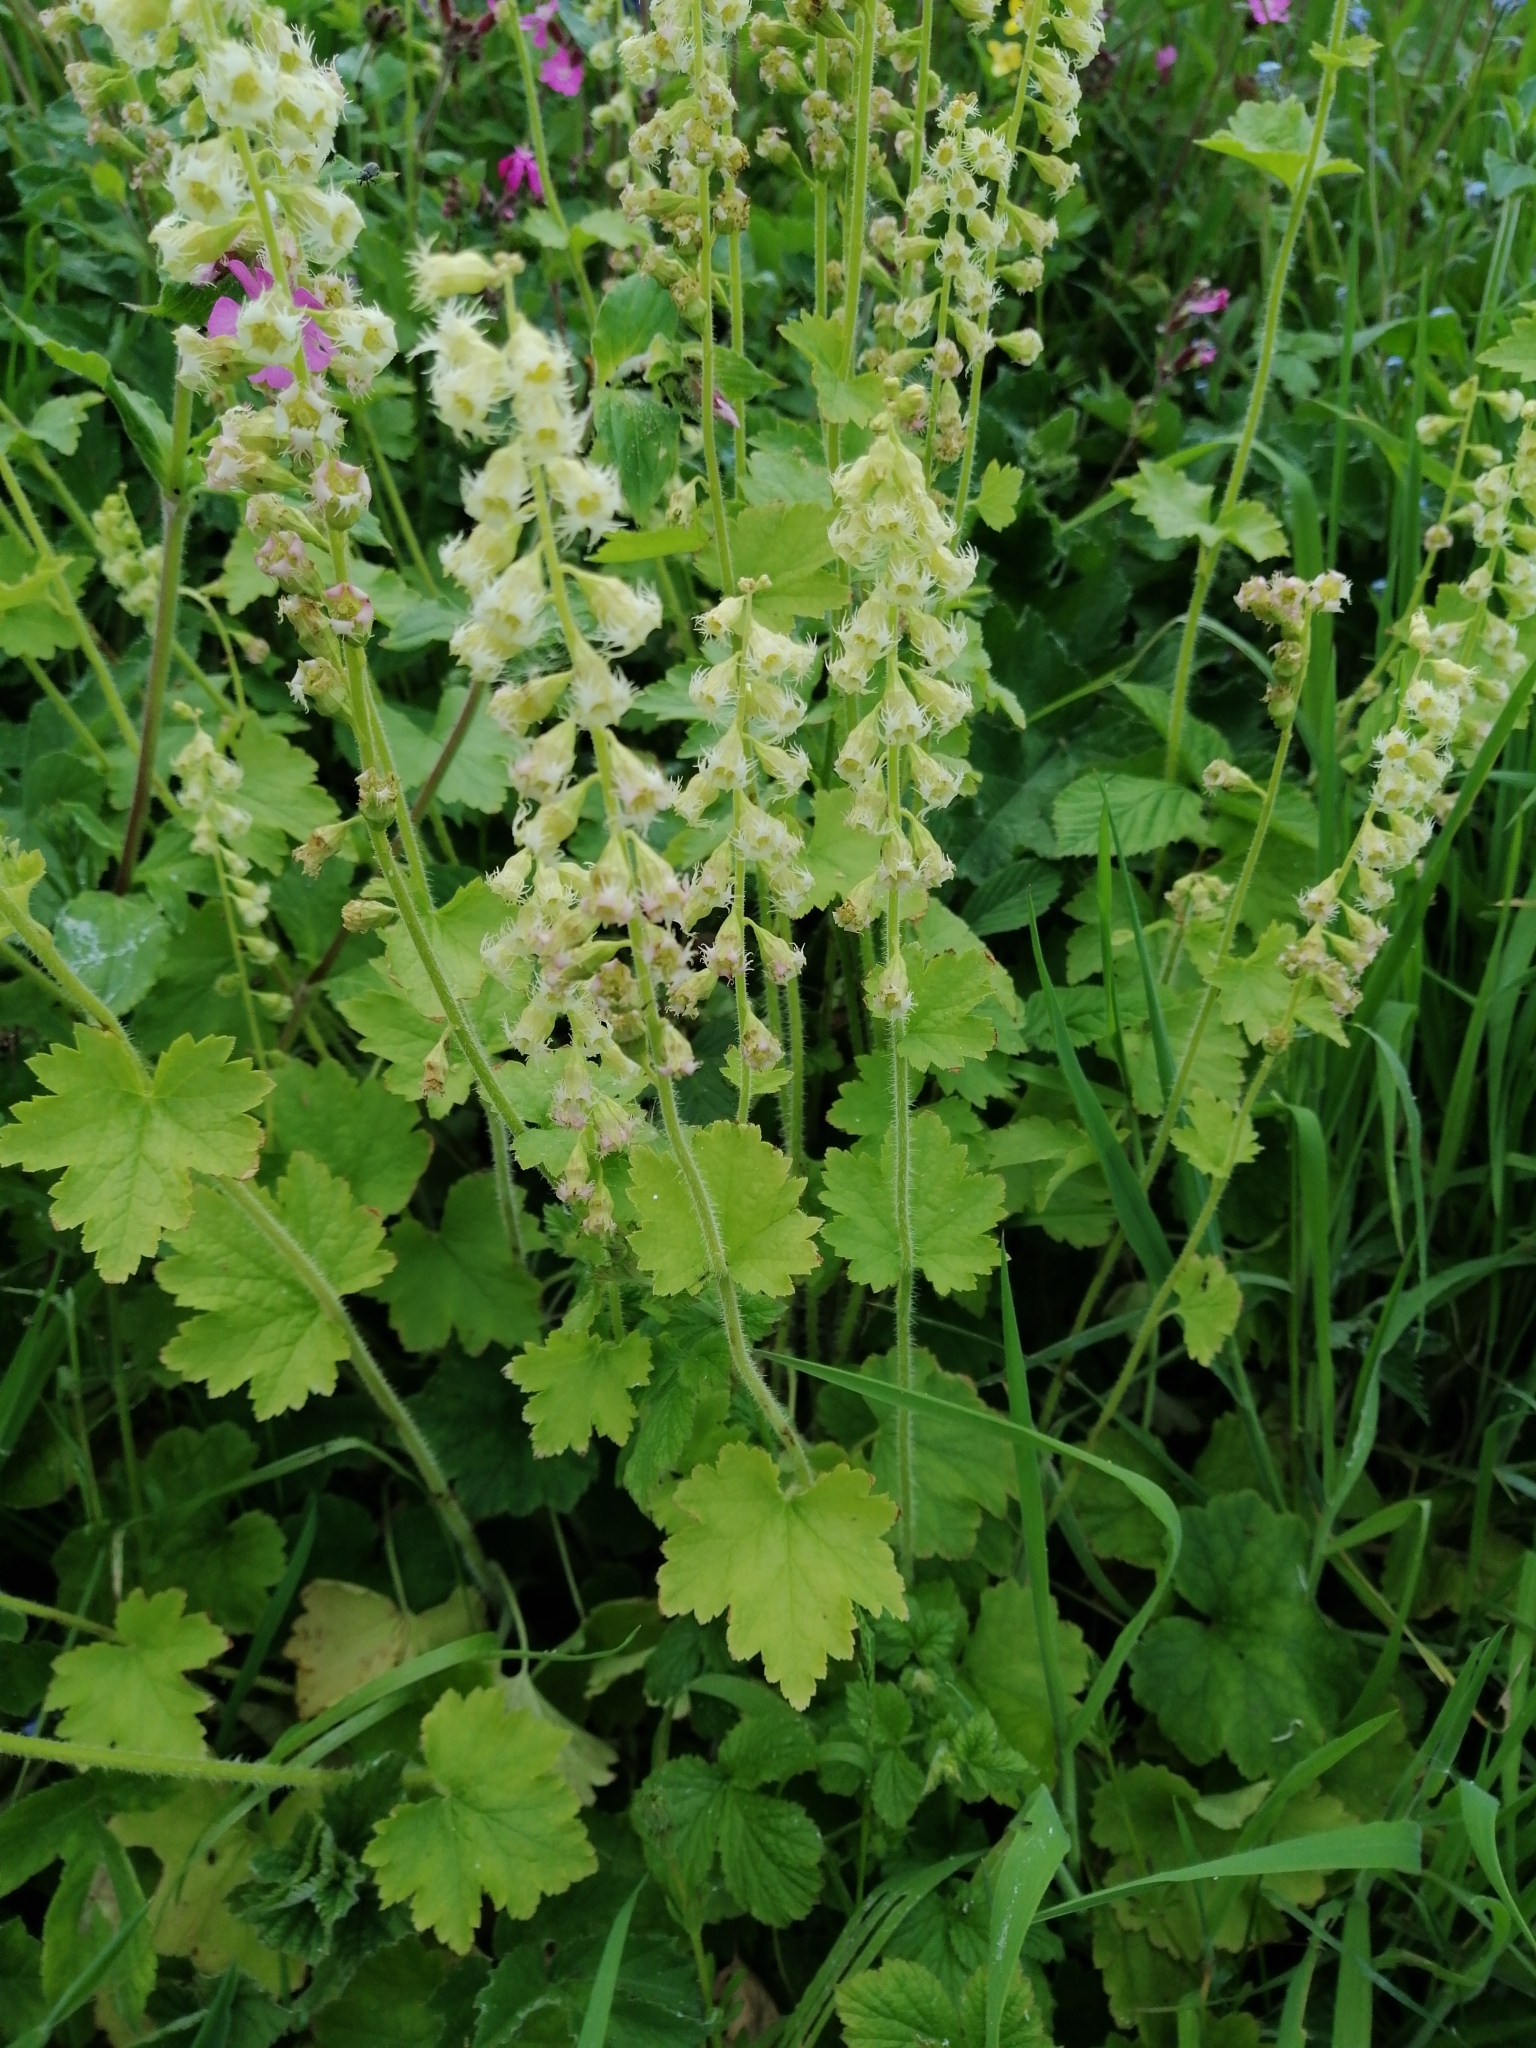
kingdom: Plantae
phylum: Tracheophyta
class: Magnoliopsida
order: Saxifragales
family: Saxifragaceae
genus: Tellima
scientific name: Tellima grandiflora
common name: Fringecups
